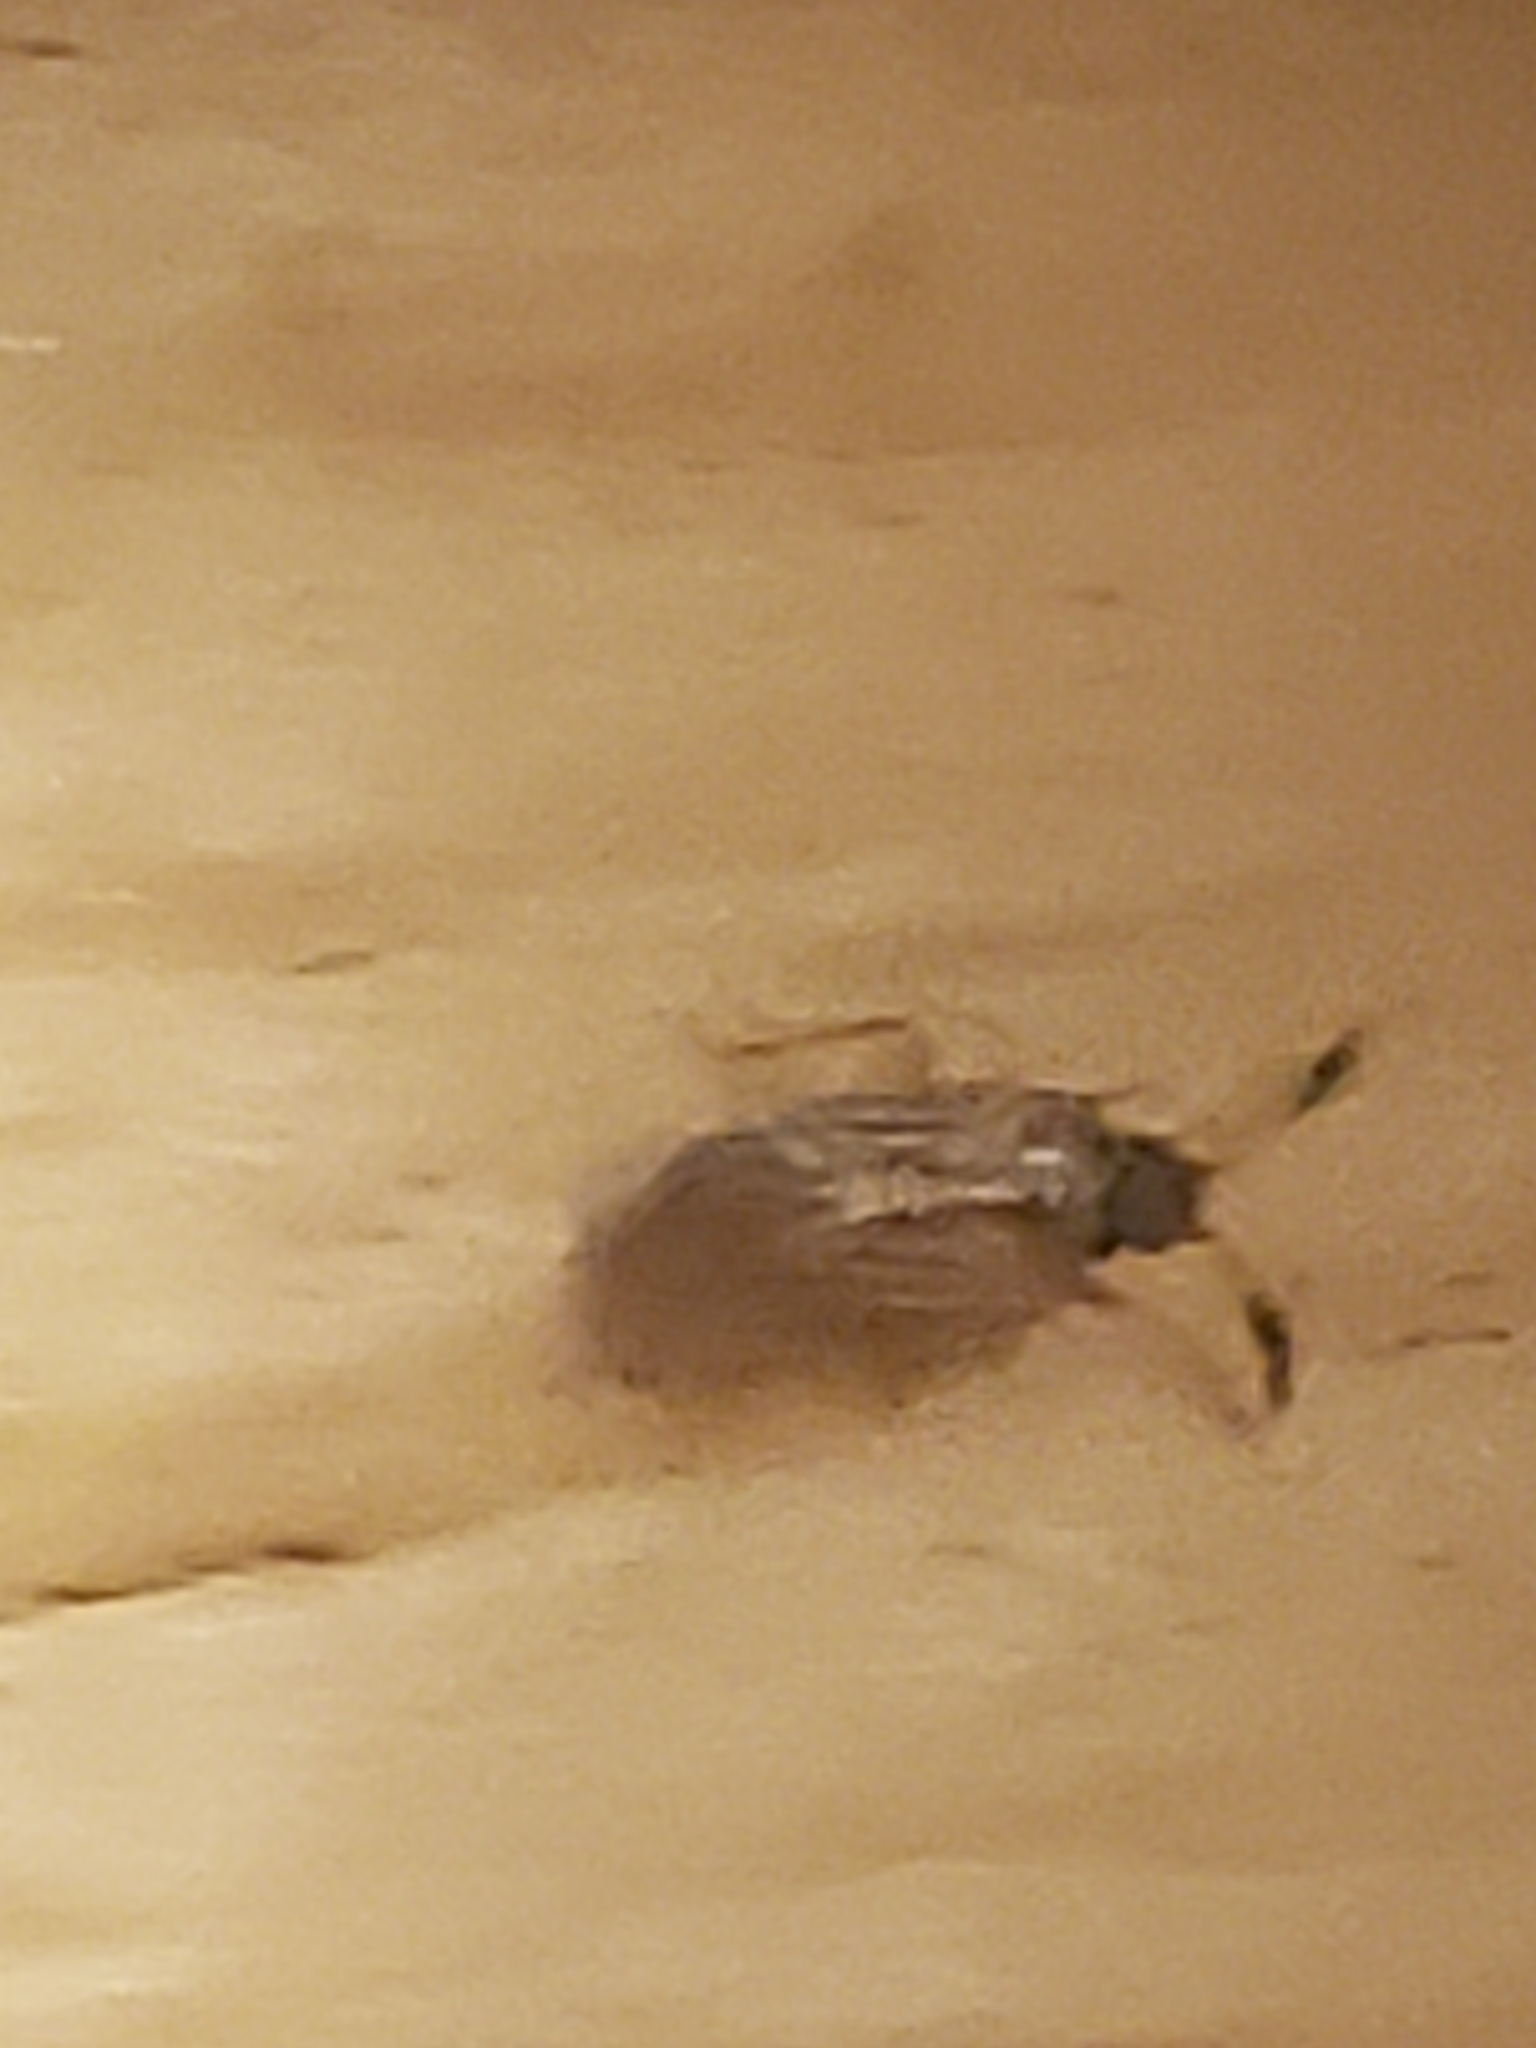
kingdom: Animalia
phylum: Arthropoda
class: Insecta
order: Hemiptera
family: Rhyparochromidae
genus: Ptochiomera
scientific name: Ptochiomera nodosa
